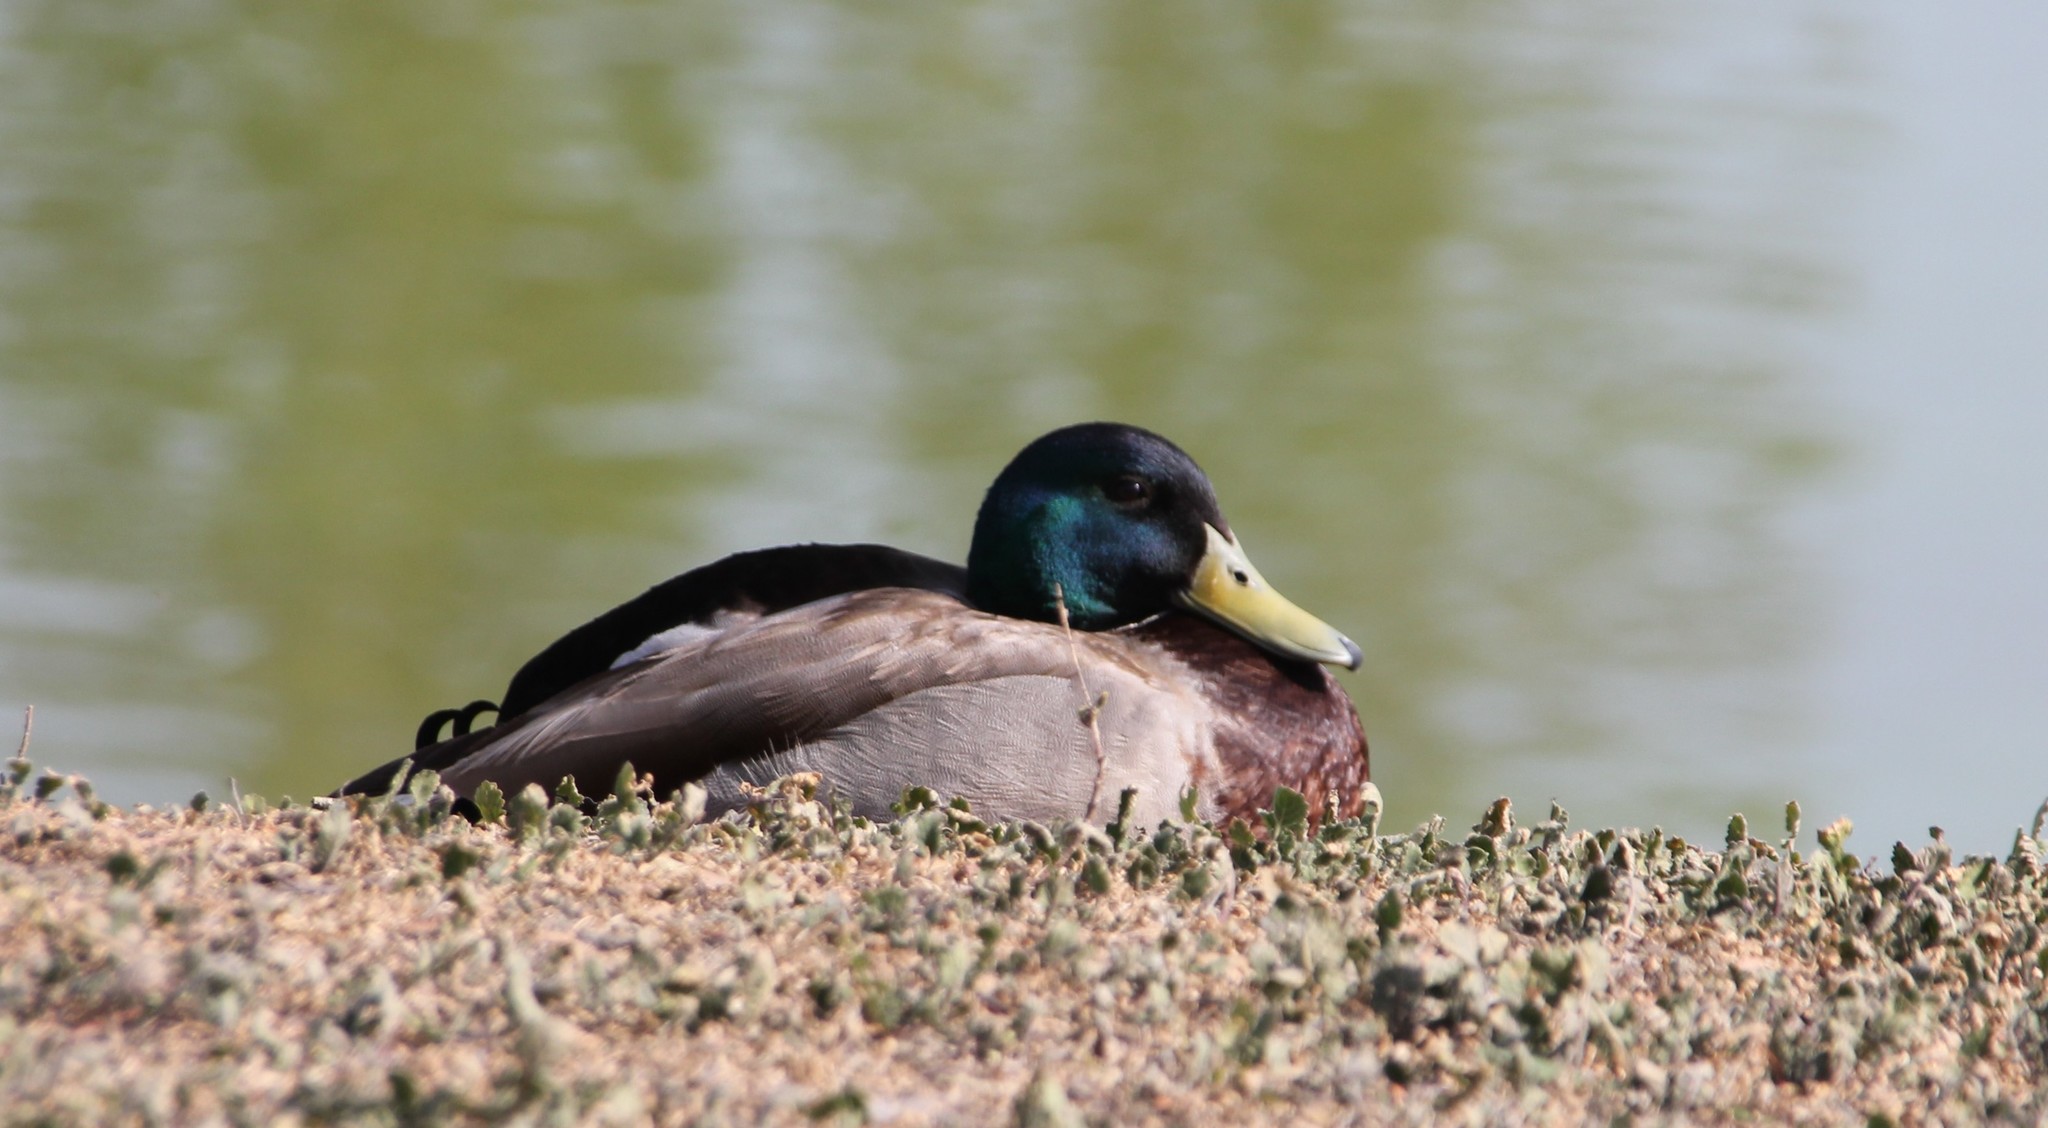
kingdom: Animalia
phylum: Chordata
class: Aves
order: Anseriformes
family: Anatidae
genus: Anas
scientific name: Anas platyrhynchos
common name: Mallard
